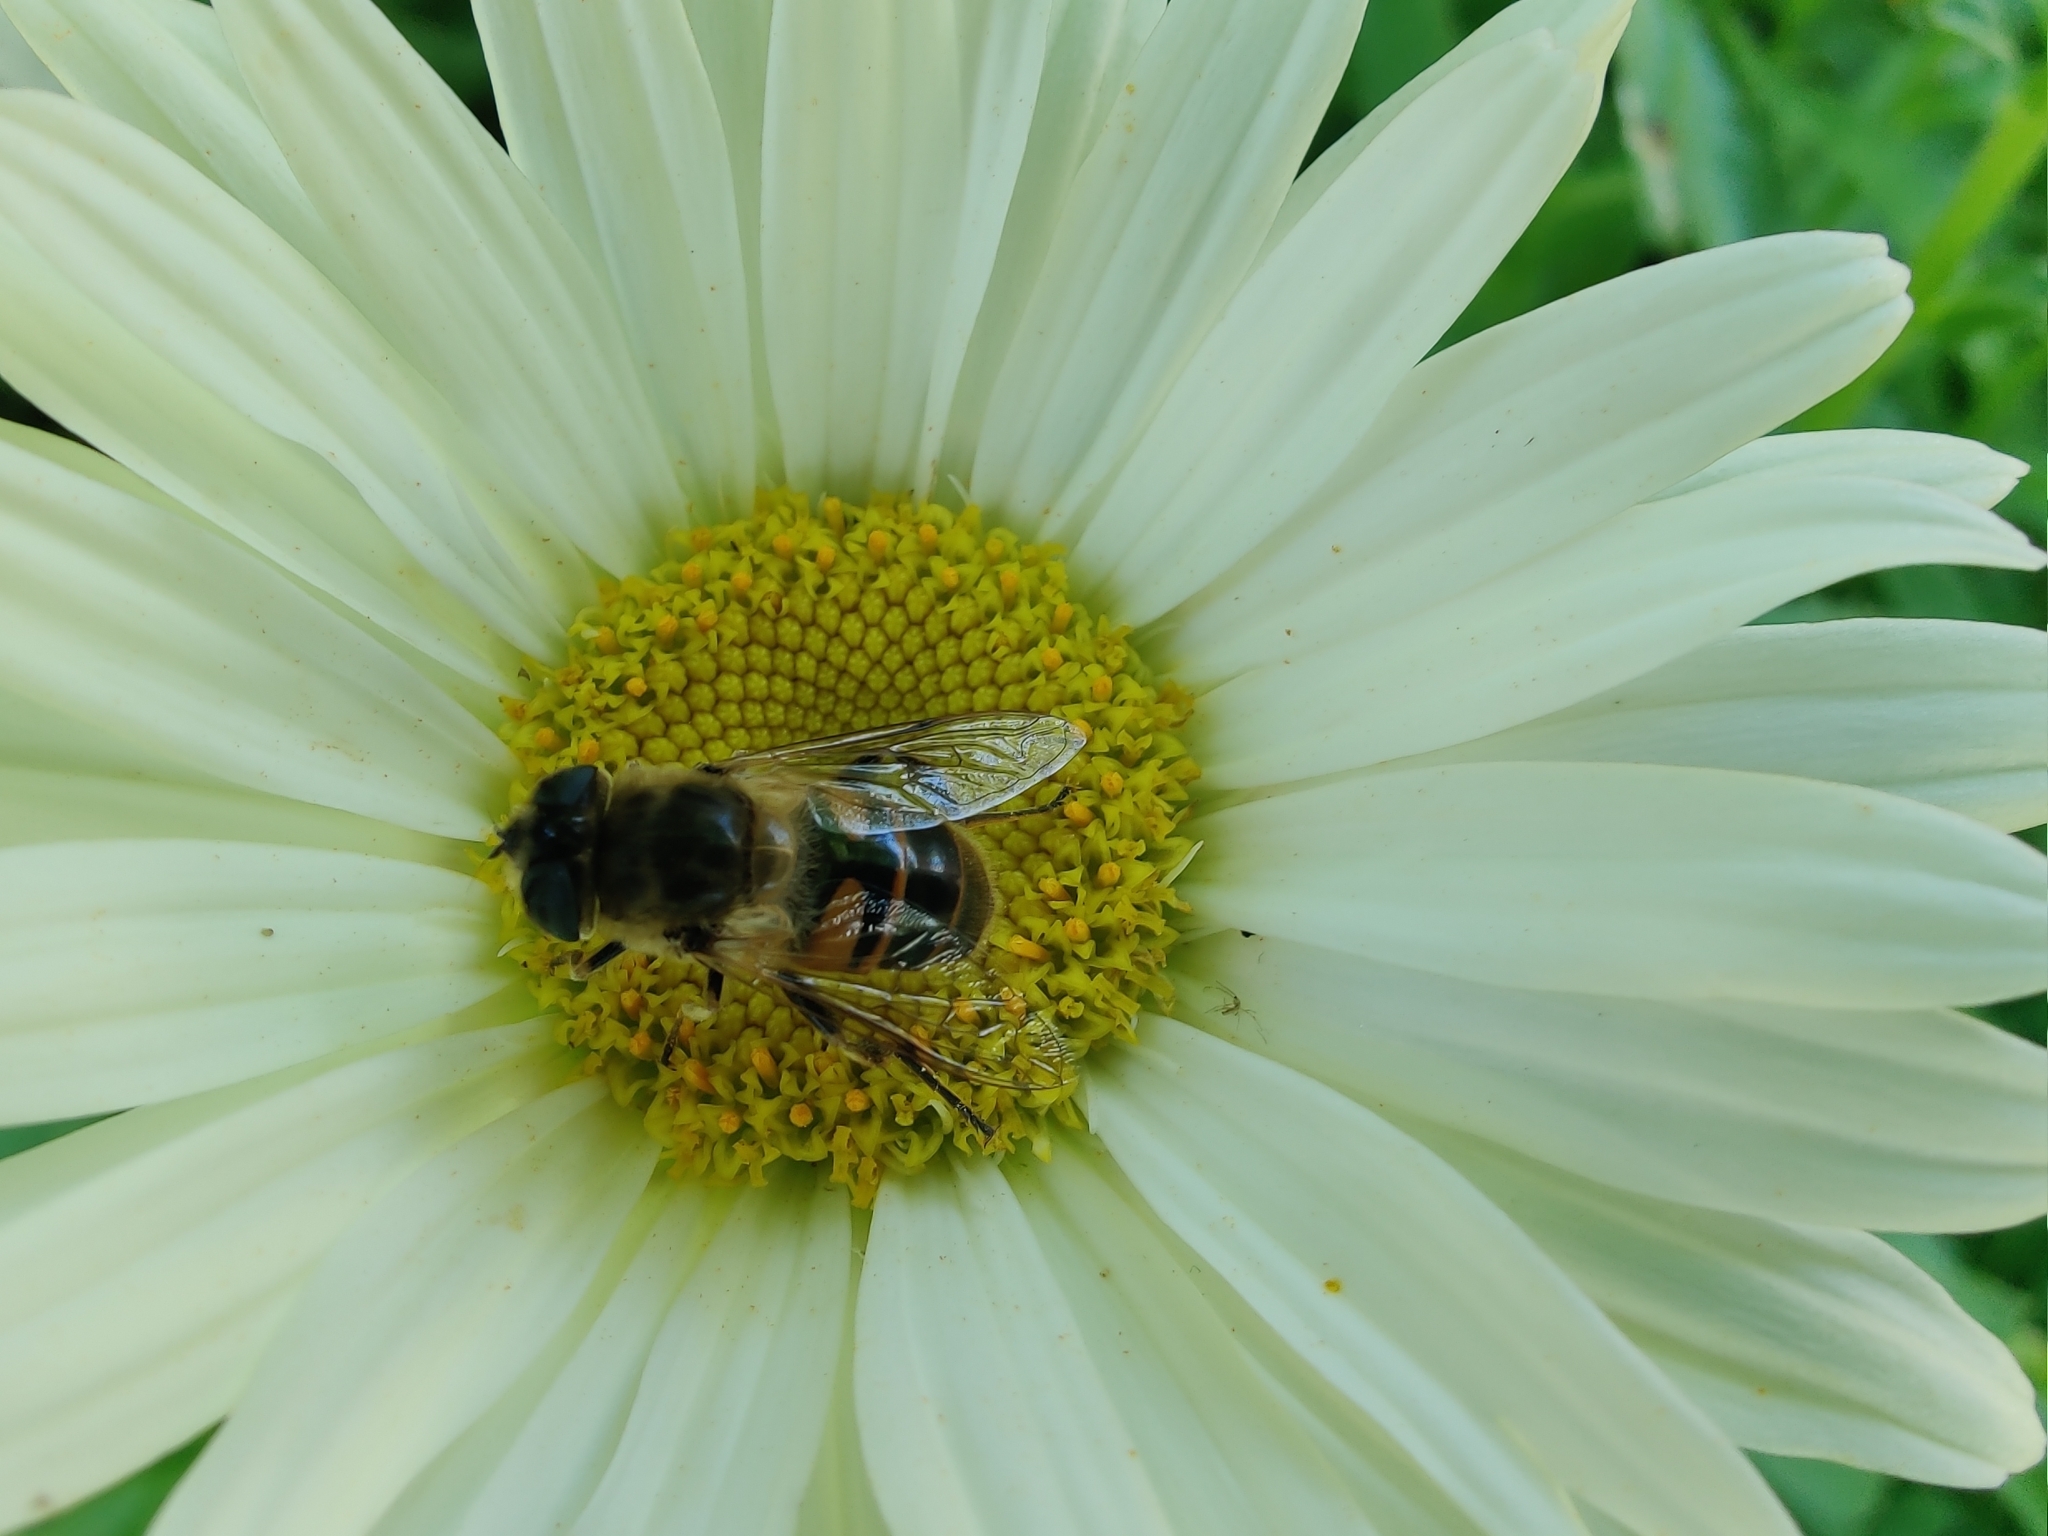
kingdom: Animalia
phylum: Arthropoda
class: Insecta
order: Diptera
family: Syrphidae
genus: Eristalis
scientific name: Eristalis tenax
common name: Drone fly
